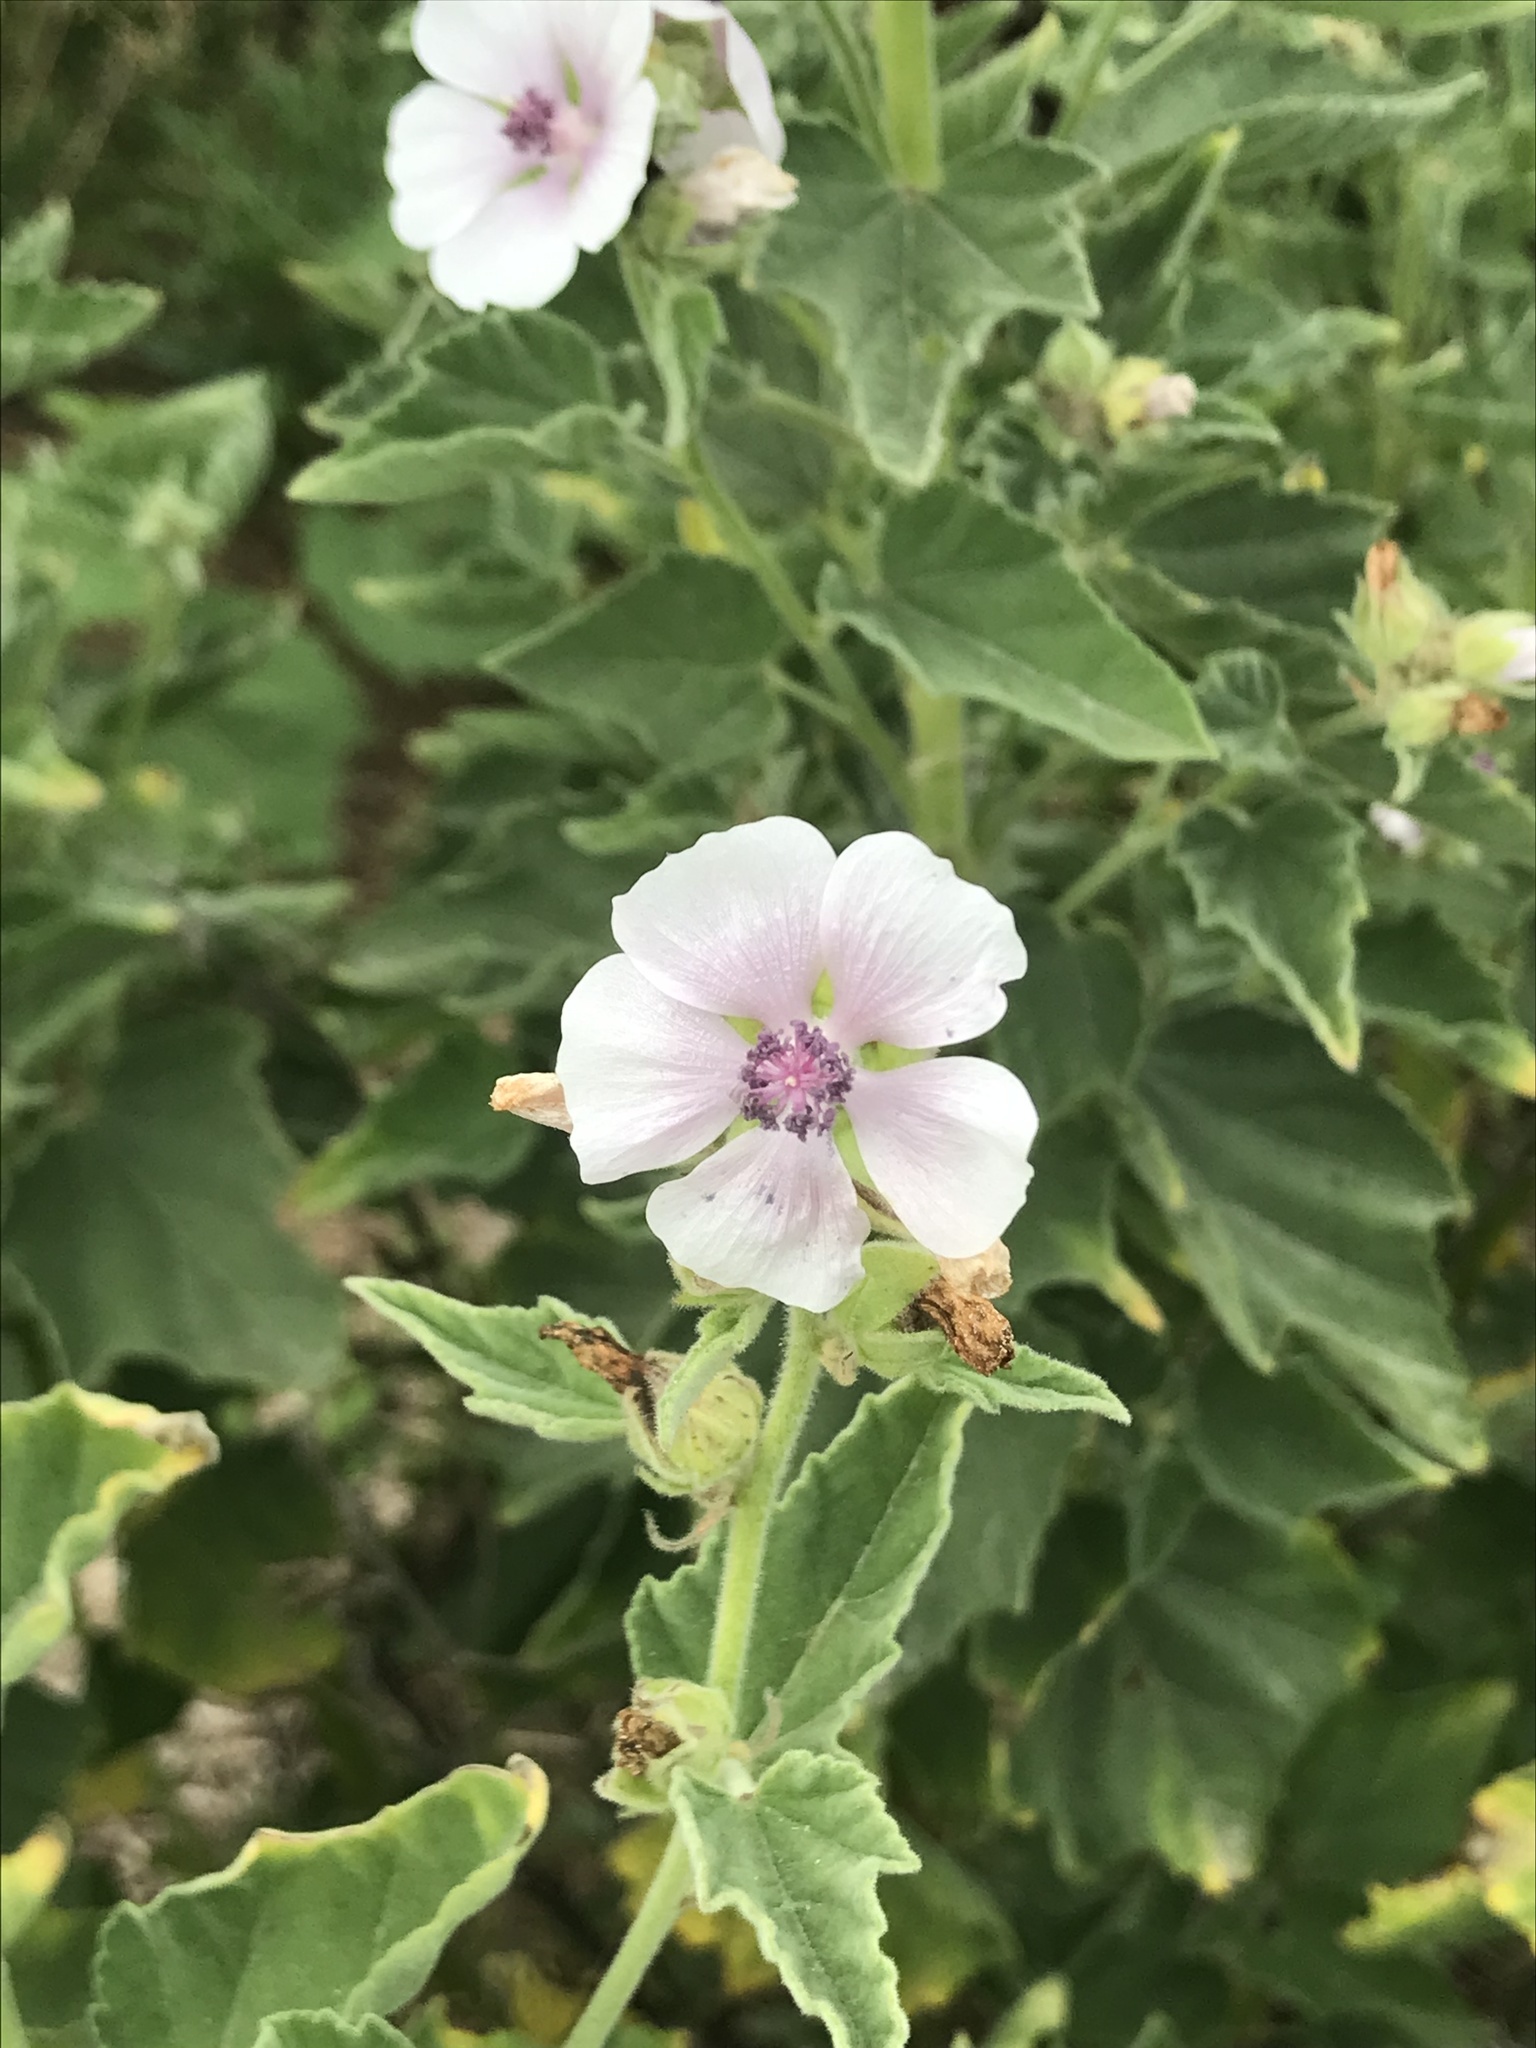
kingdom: Plantae
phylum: Tracheophyta
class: Magnoliopsida
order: Malvales
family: Malvaceae
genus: Althaea
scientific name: Althaea officinalis
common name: Marsh-mallow
